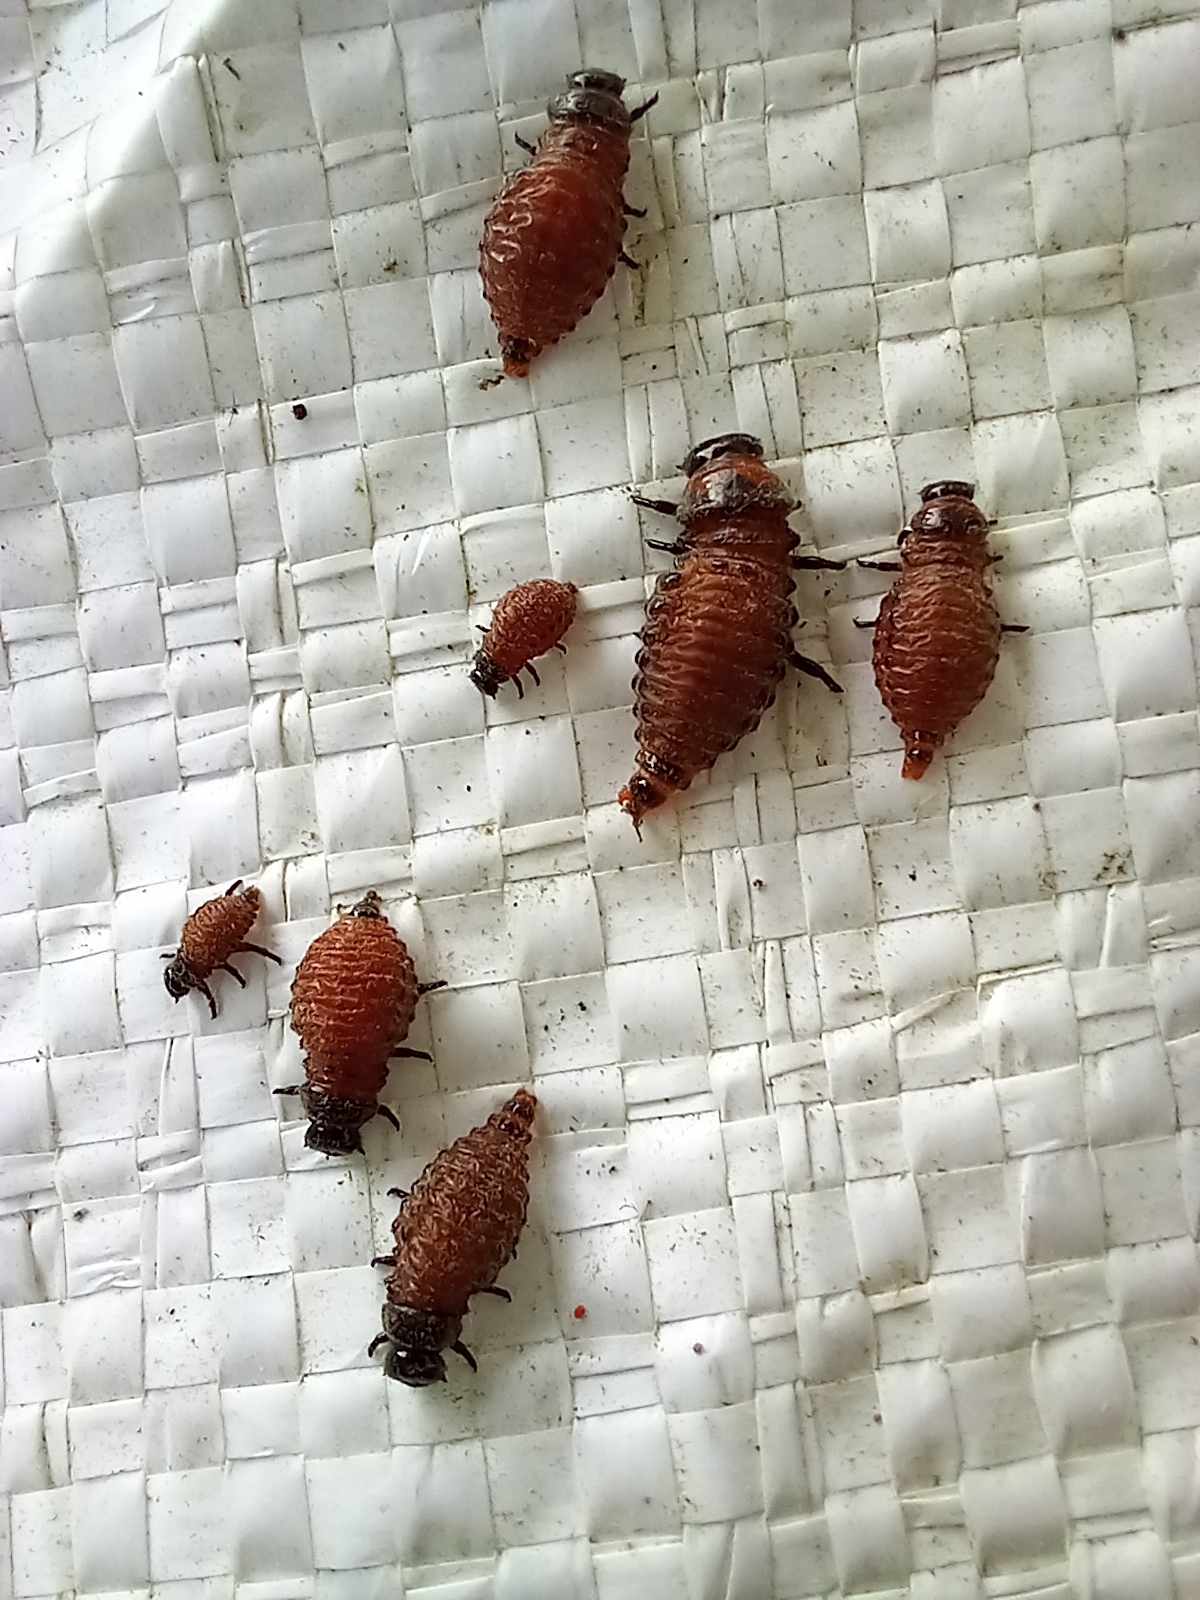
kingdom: Animalia
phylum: Arthropoda
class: Insecta
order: Coleoptera
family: Chrysomelidae
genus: Leptinotarsa
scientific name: Leptinotarsa decemlineata
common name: Colorado potato beetle
